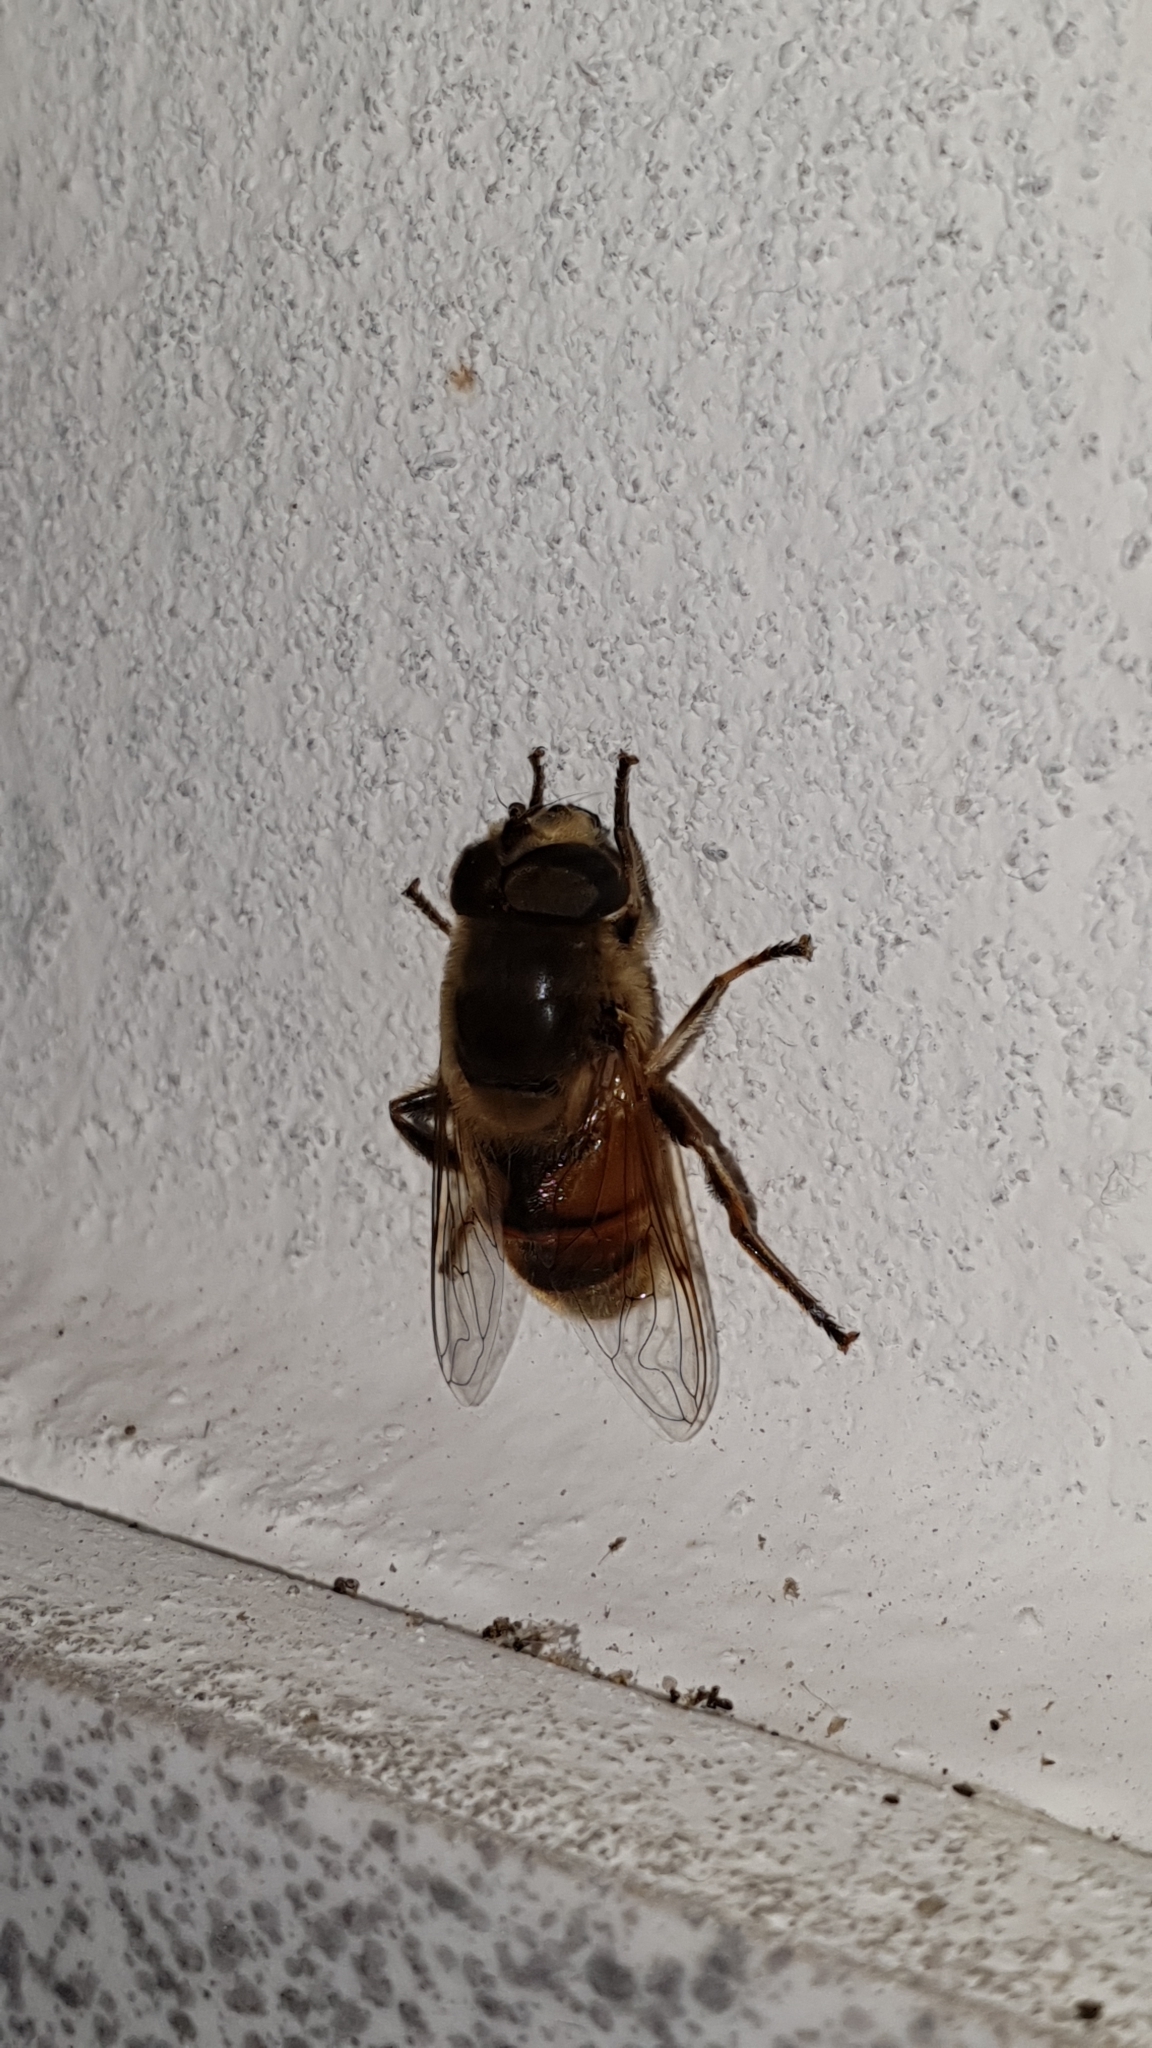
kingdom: Animalia
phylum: Arthropoda
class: Insecta
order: Diptera
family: Syrphidae
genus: Eristalis
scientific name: Eristalis tenax
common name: Drone fly
